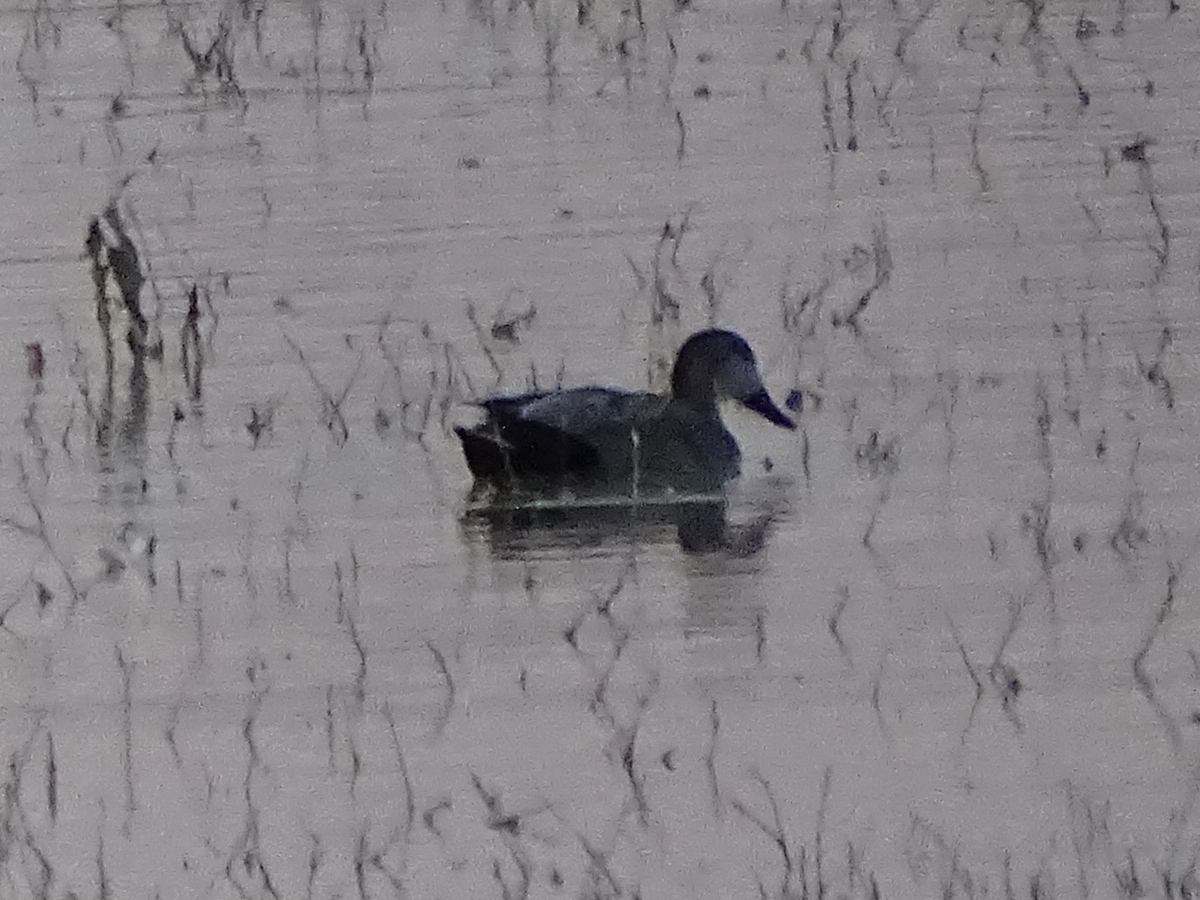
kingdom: Animalia
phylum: Chordata
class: Aves
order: Anseriformes
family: Anatidae
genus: Mareca
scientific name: Mareca strepera
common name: Gadwall
